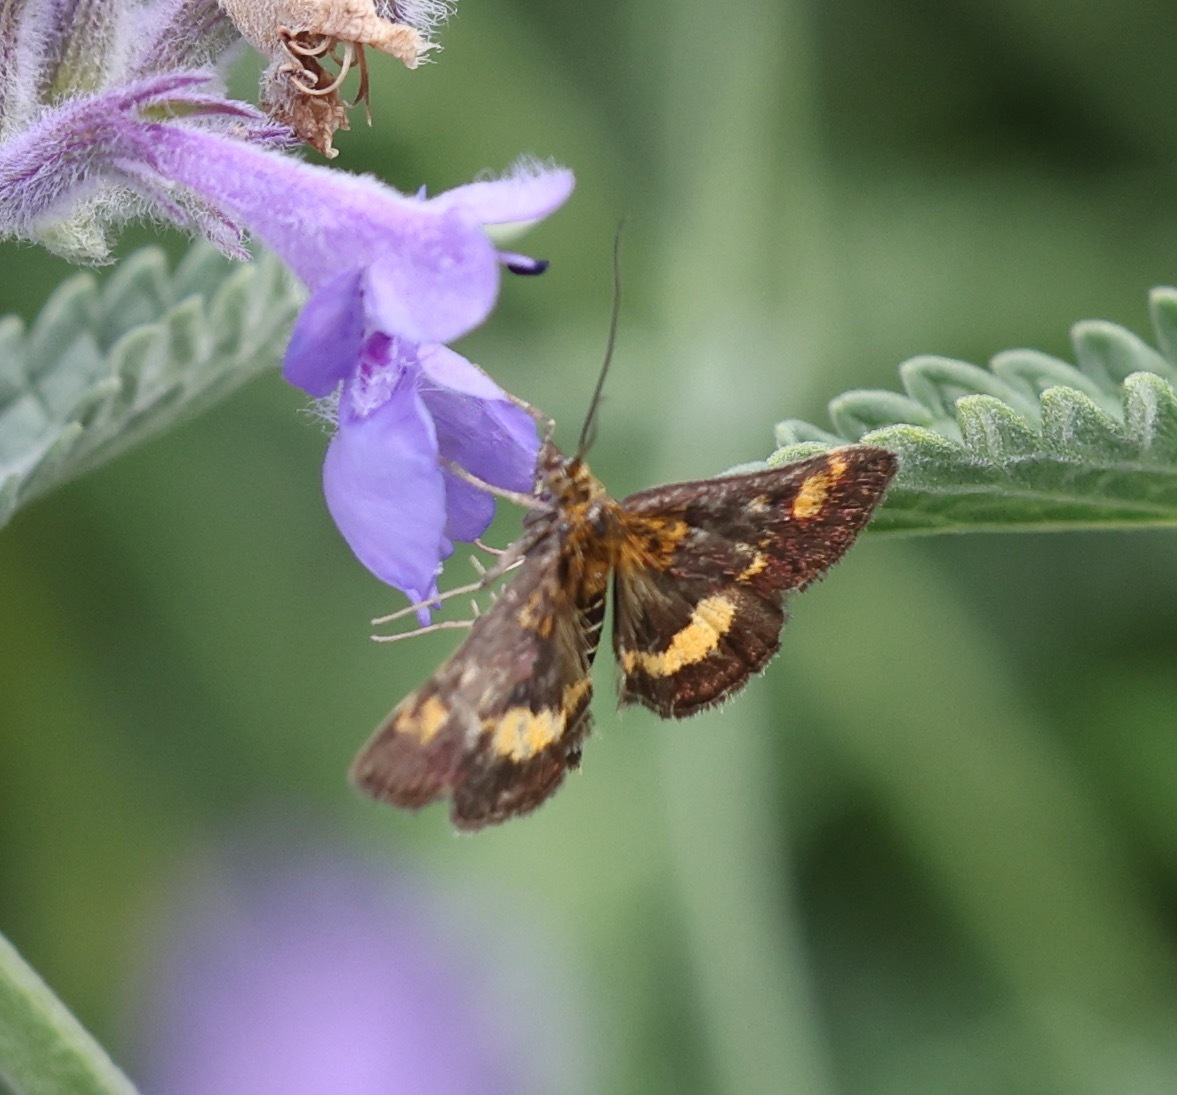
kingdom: Animalia
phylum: Arthropoda
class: Insecta
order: Lepidoptera
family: Crambidae
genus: Pyrausta
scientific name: Pyrausta aurata
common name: Small purple & gold
